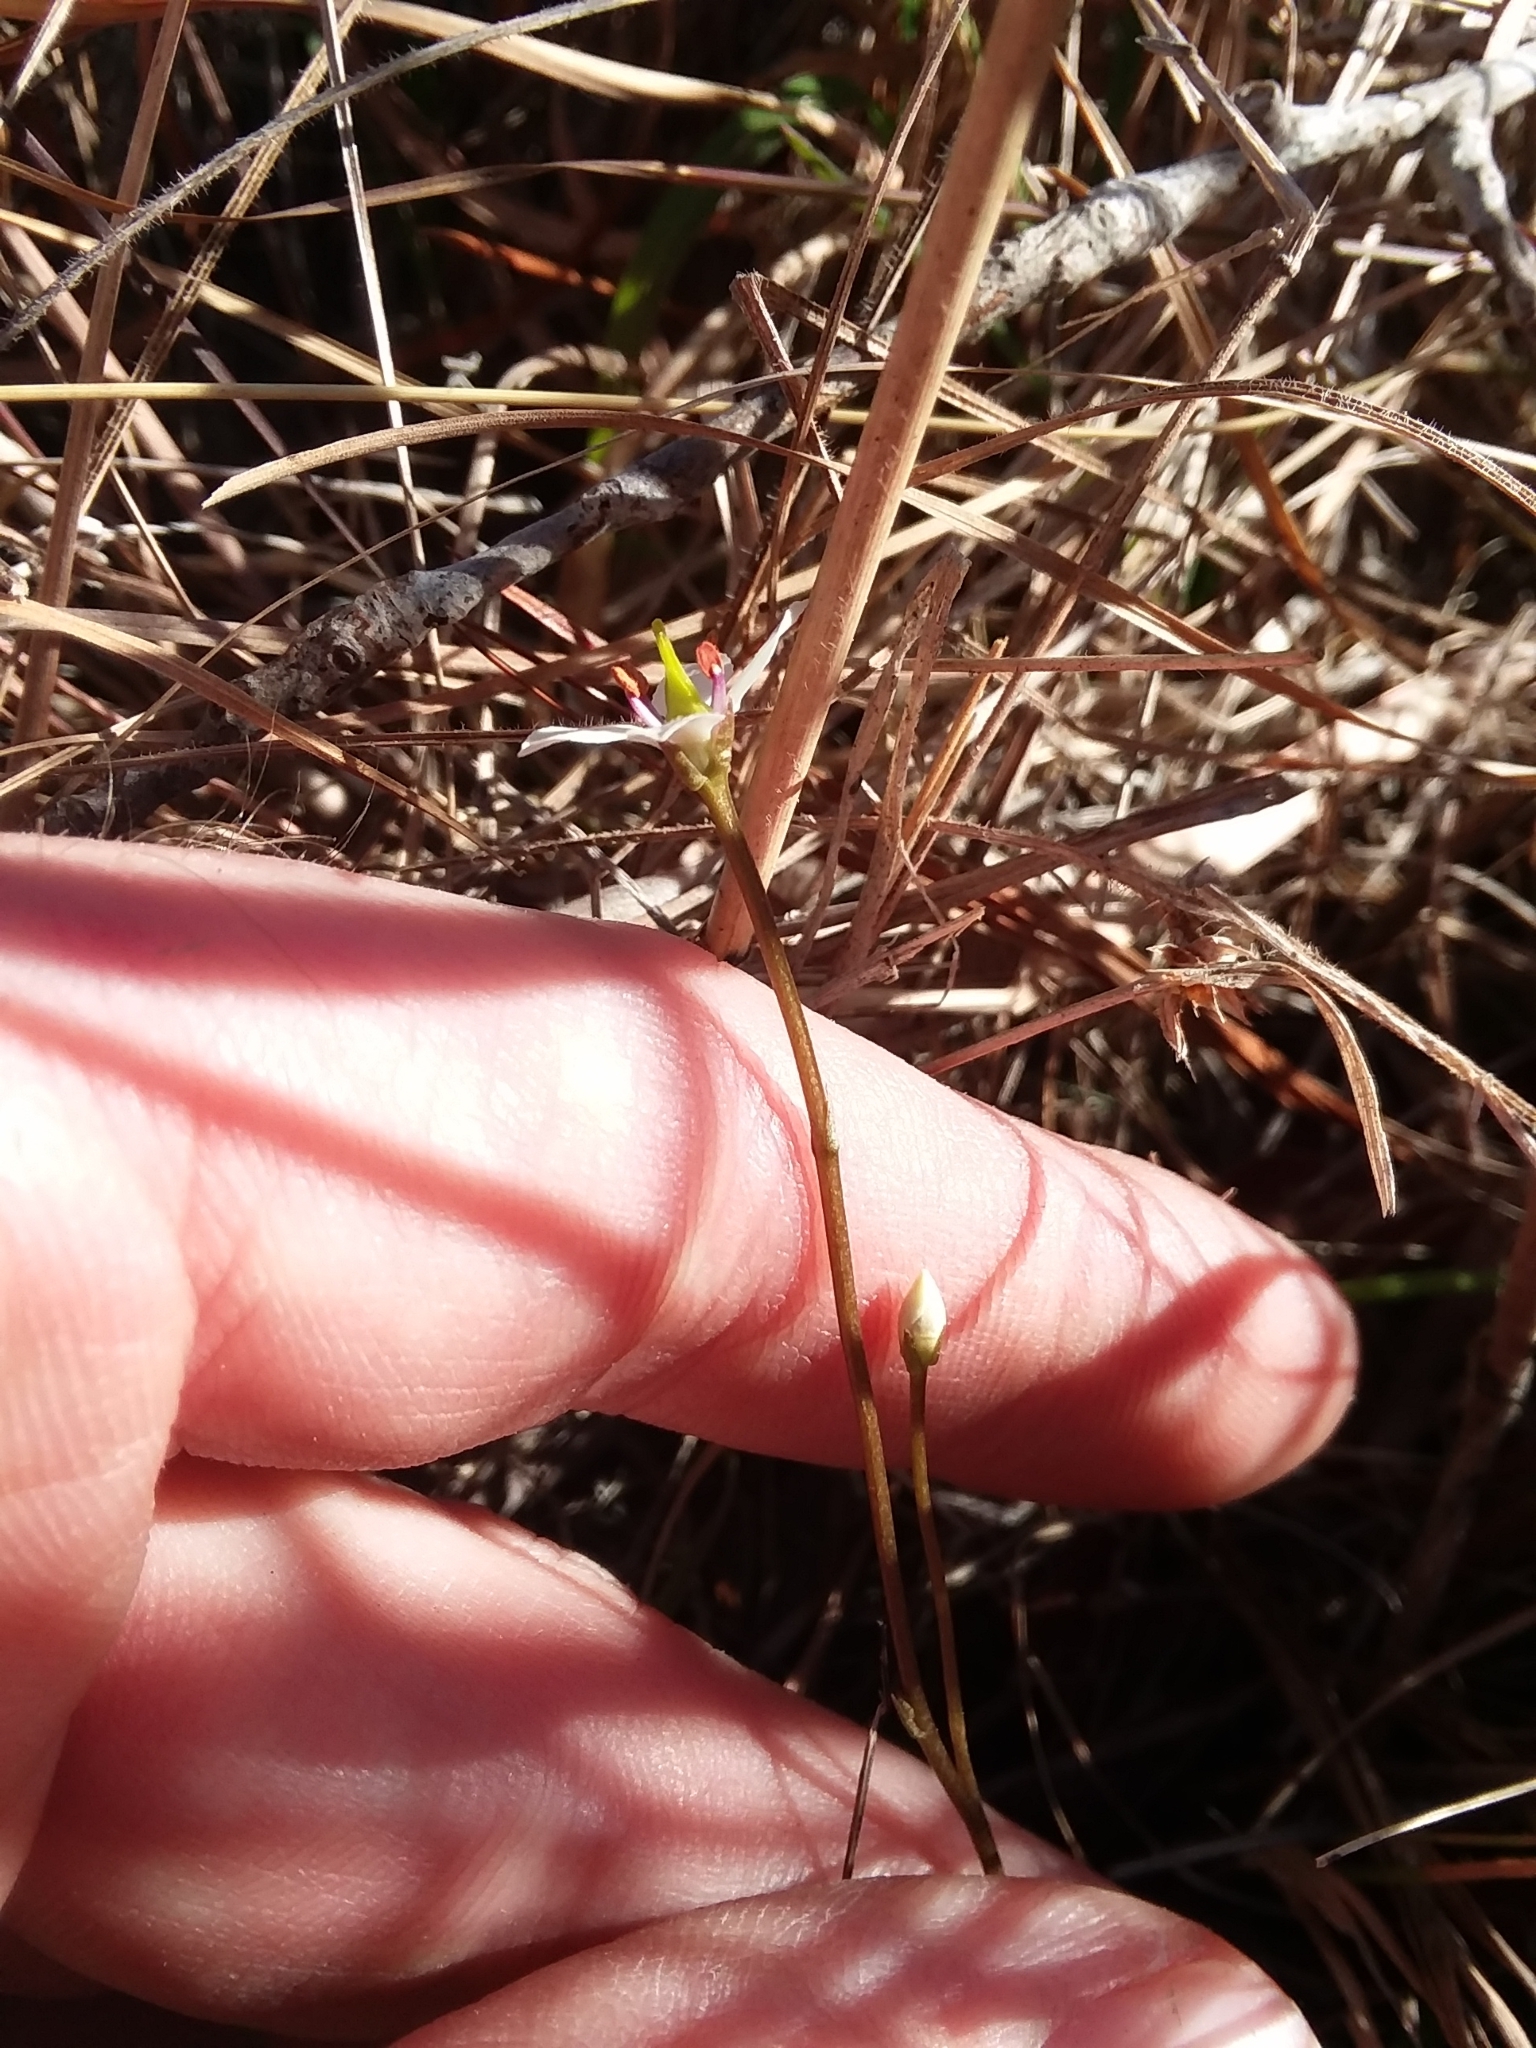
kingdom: Plantae
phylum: Tracheophyta
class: Magnoliopsida
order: Gentianales
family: Gentianaceae
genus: Bartonia
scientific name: Bartonia verna
